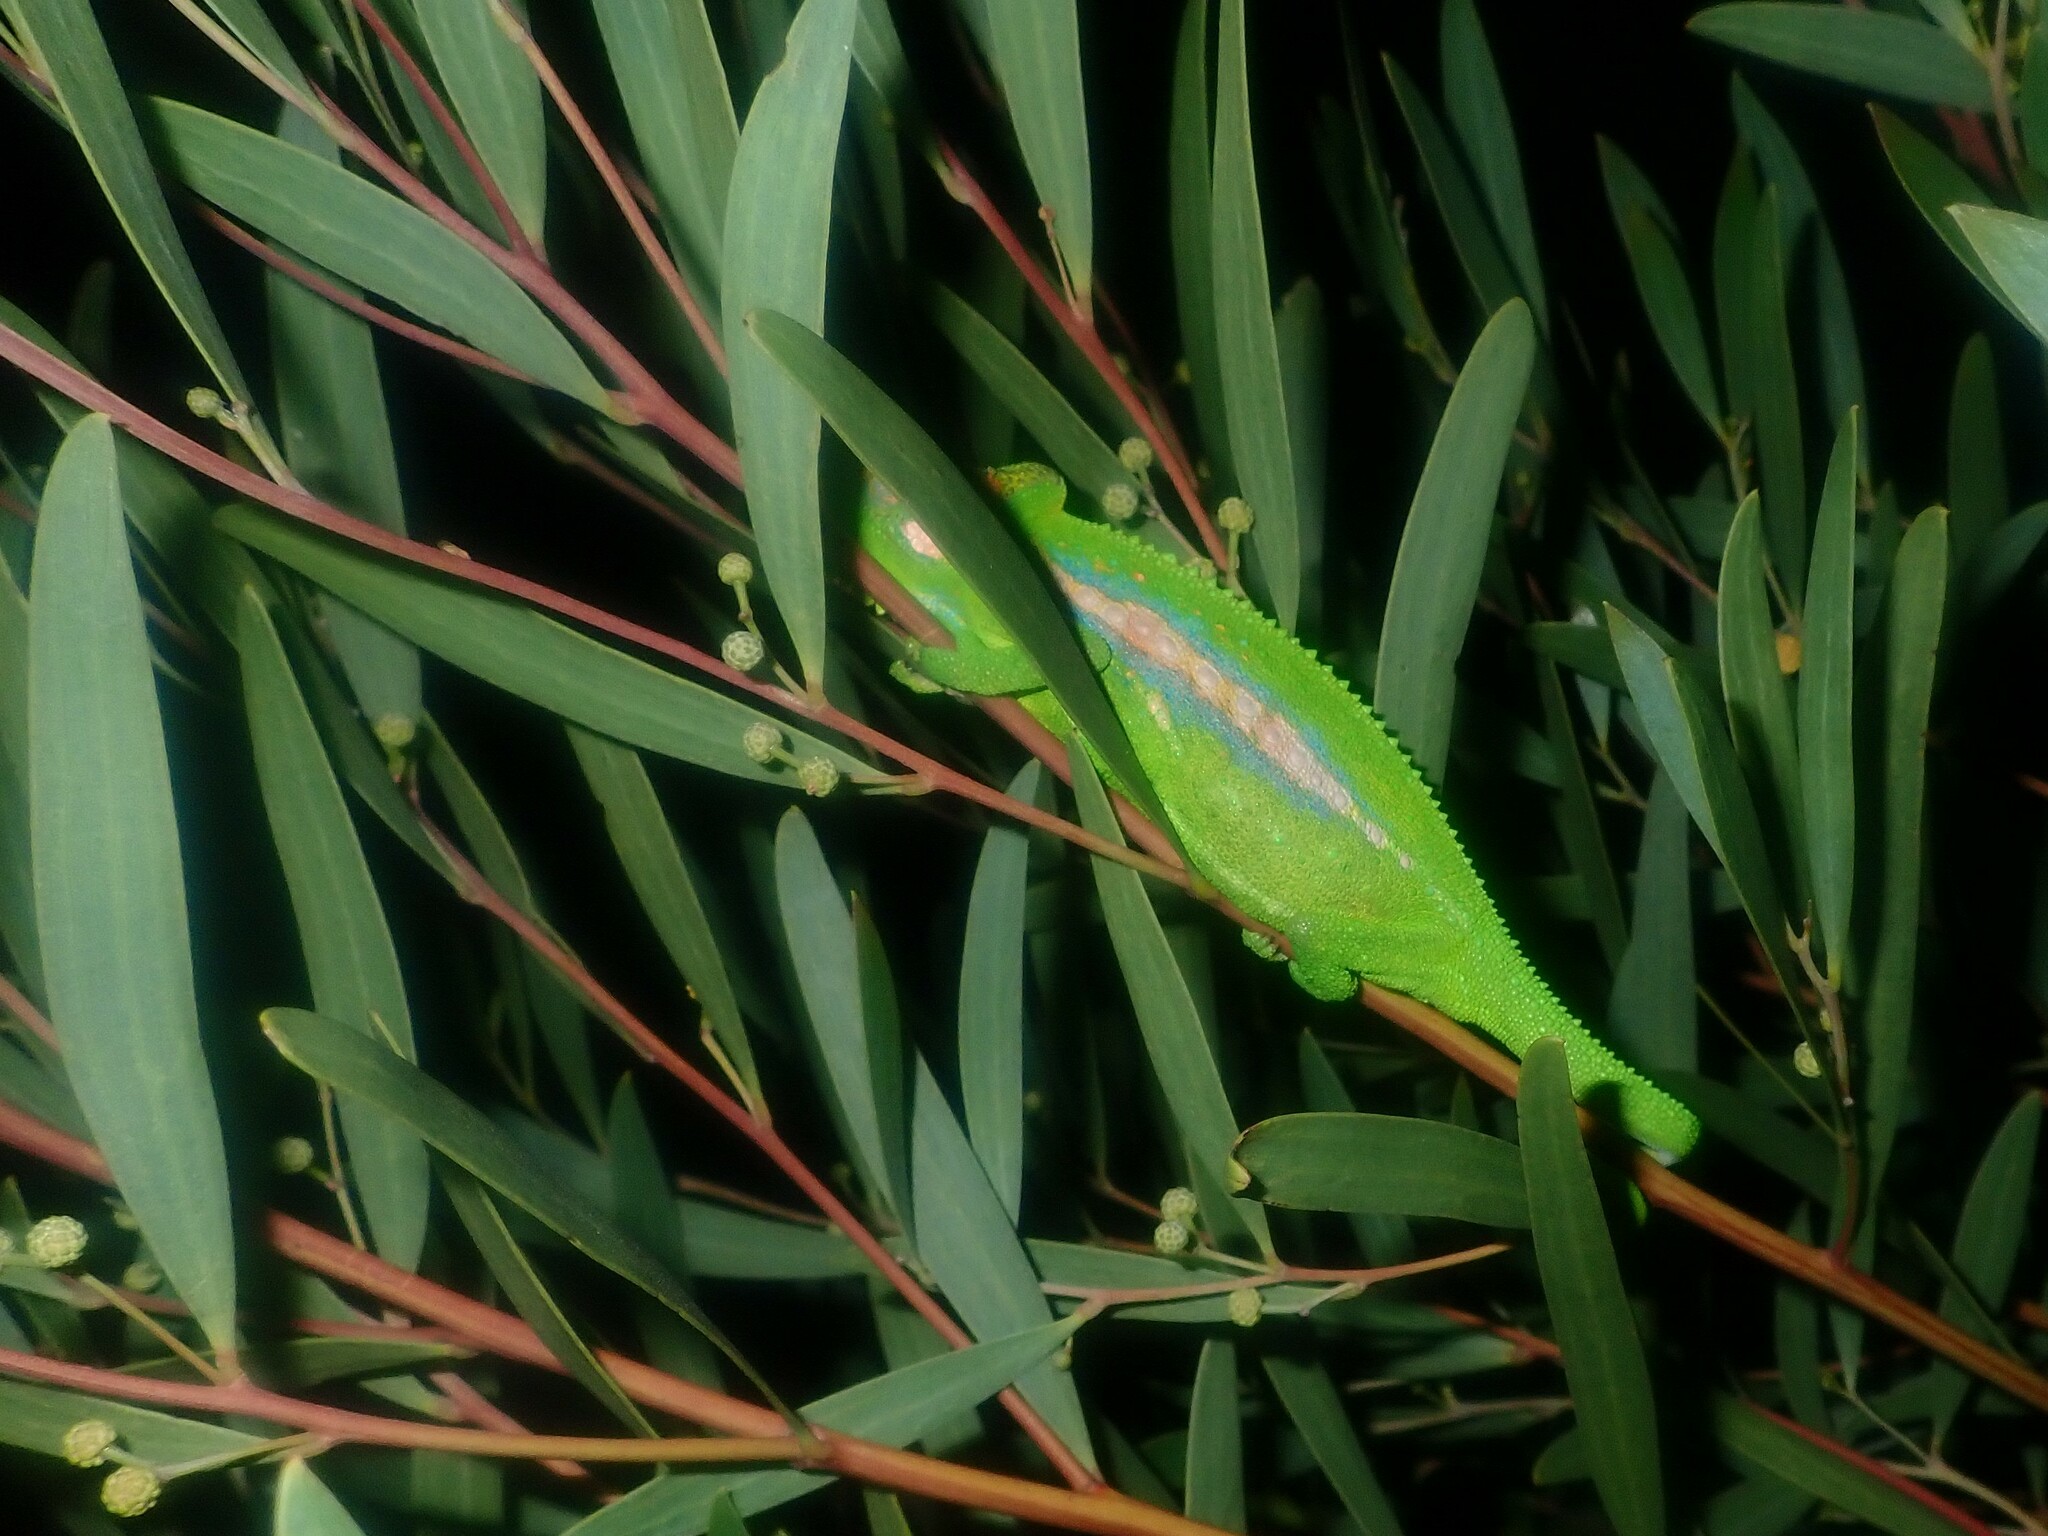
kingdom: Animalia
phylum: Chordata
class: Squamata
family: Chamaeleonidae
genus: Bradypodion
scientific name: Bradypodion pumilum
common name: Cape dwarf chameleon
